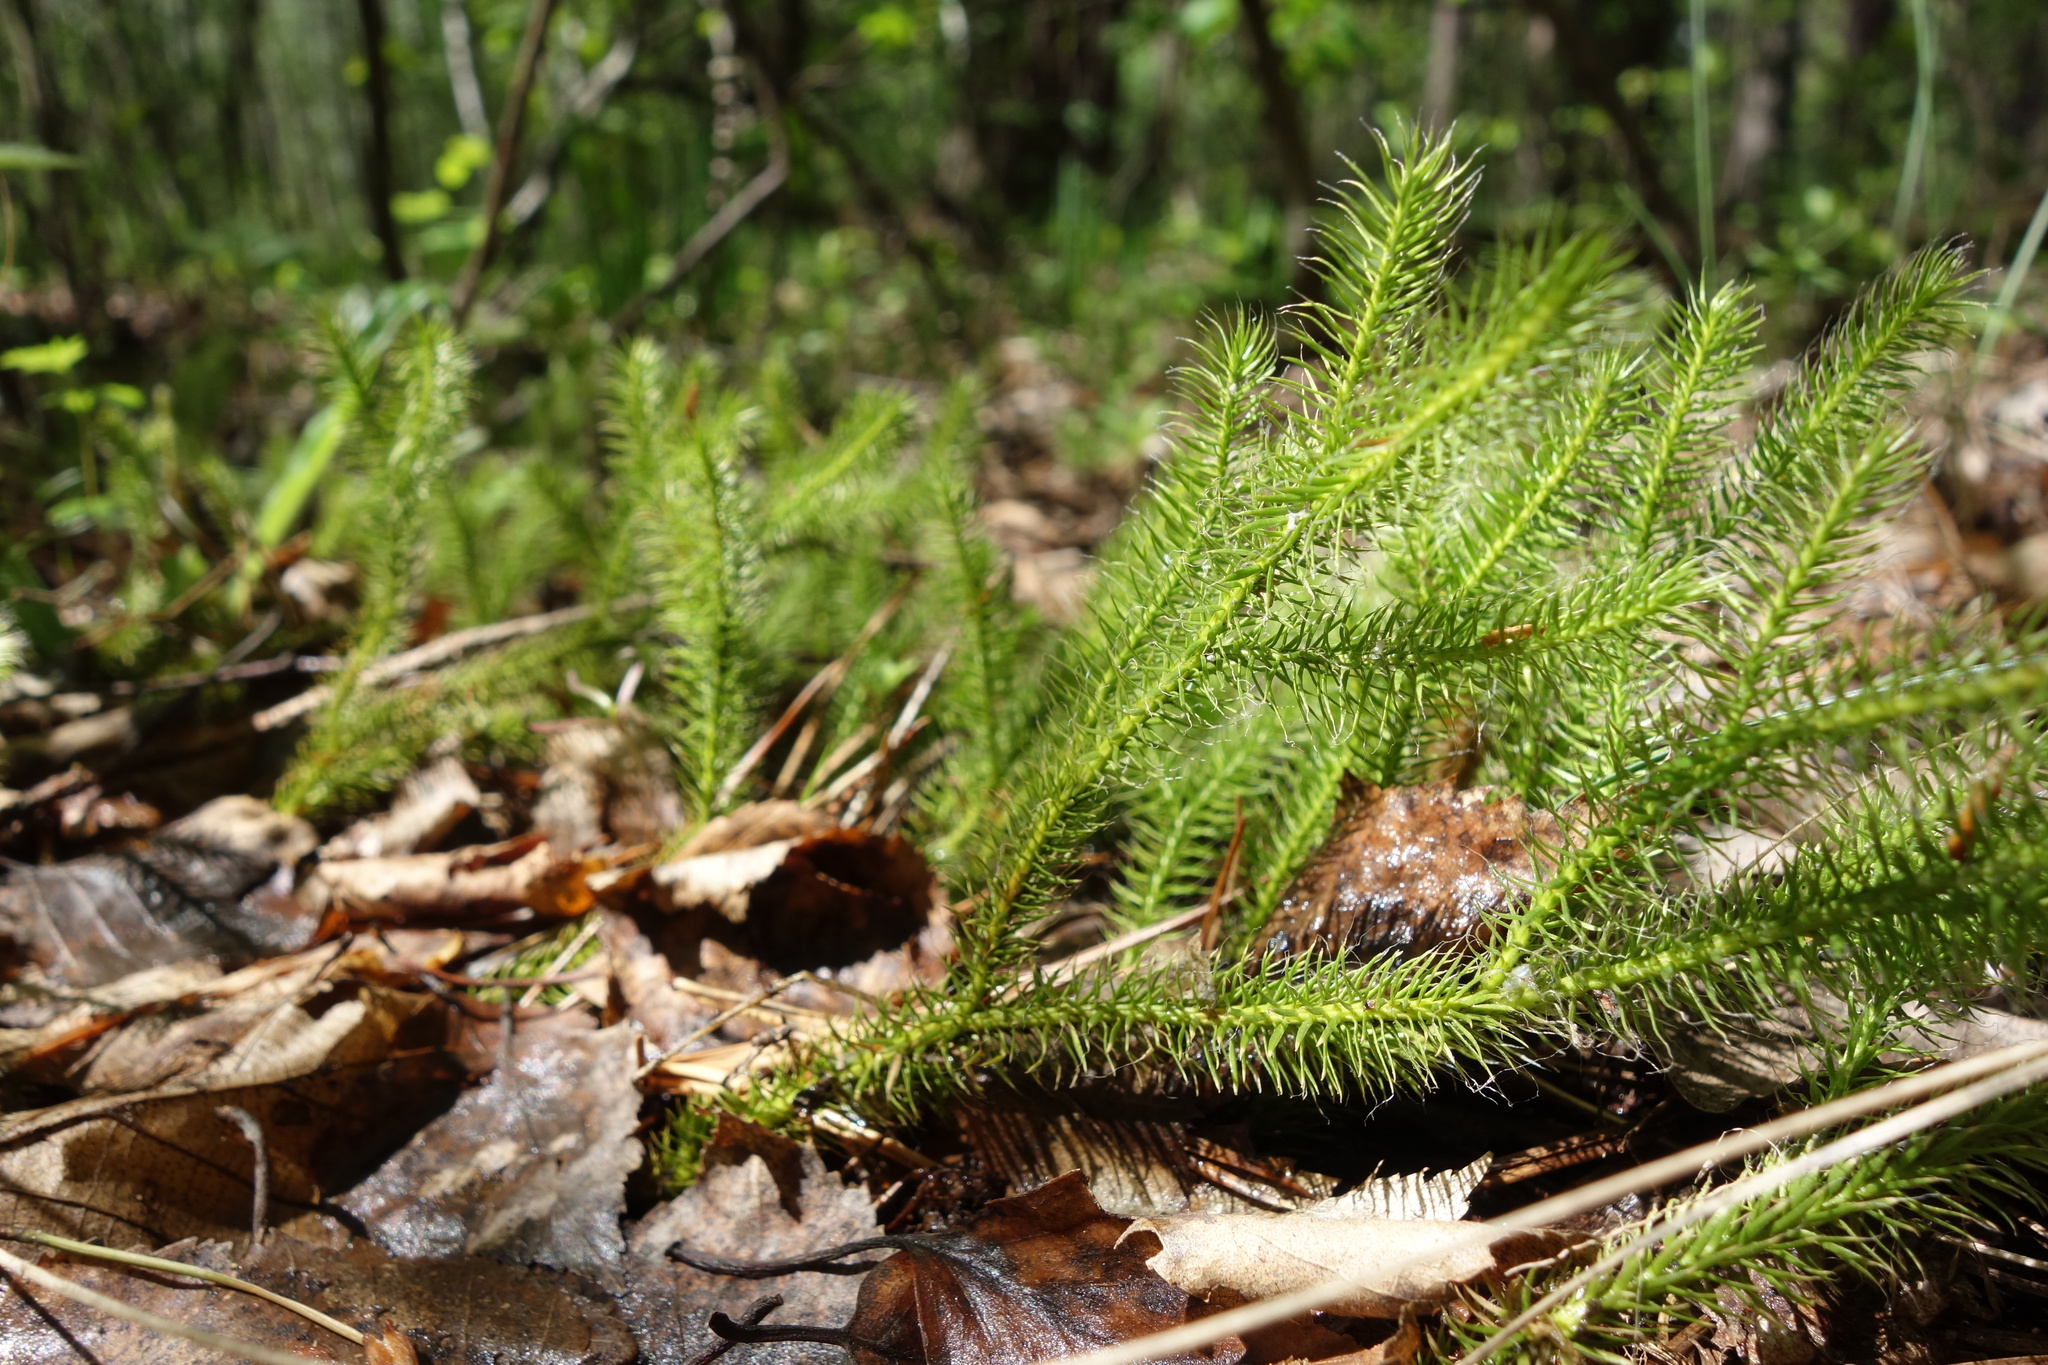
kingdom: Plantae
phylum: Tracheophyta
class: Lycopodiopsida
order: Lycopodiales
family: Lycopodiaceae
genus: Lycopodium
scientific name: Lycopodium clavatum
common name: Stag's-horn clubmoss
